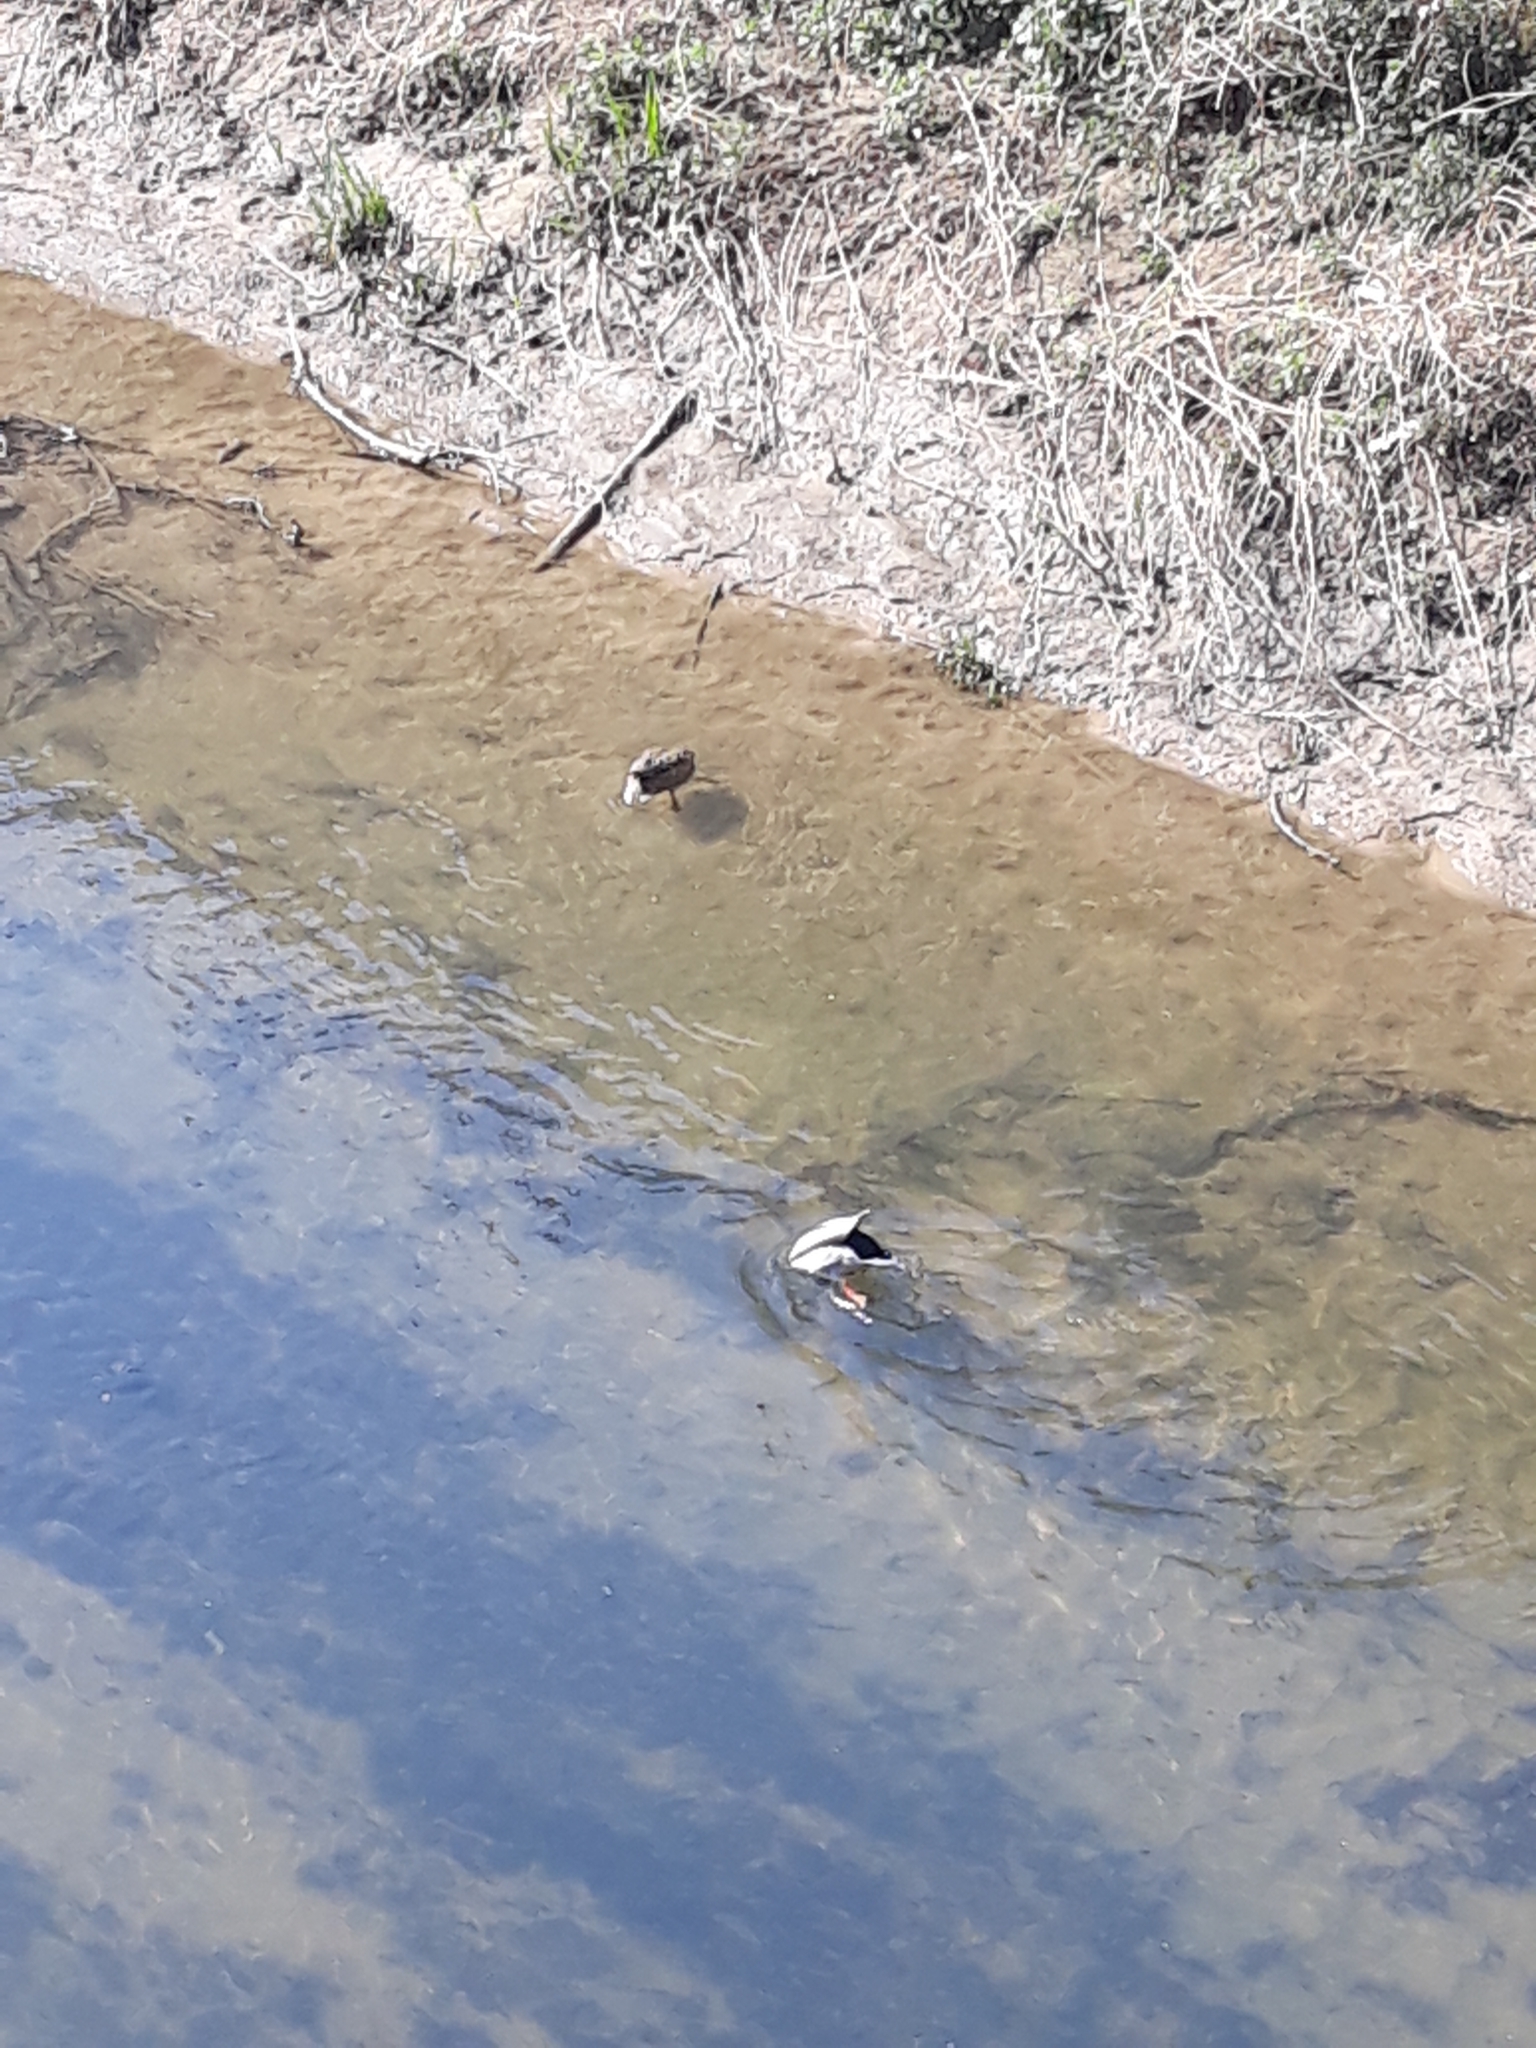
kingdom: Animalia
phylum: Chordata
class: Aves
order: Anseriformes
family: Anatidae
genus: Anas
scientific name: Anas platyrhynchos
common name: Mallard
